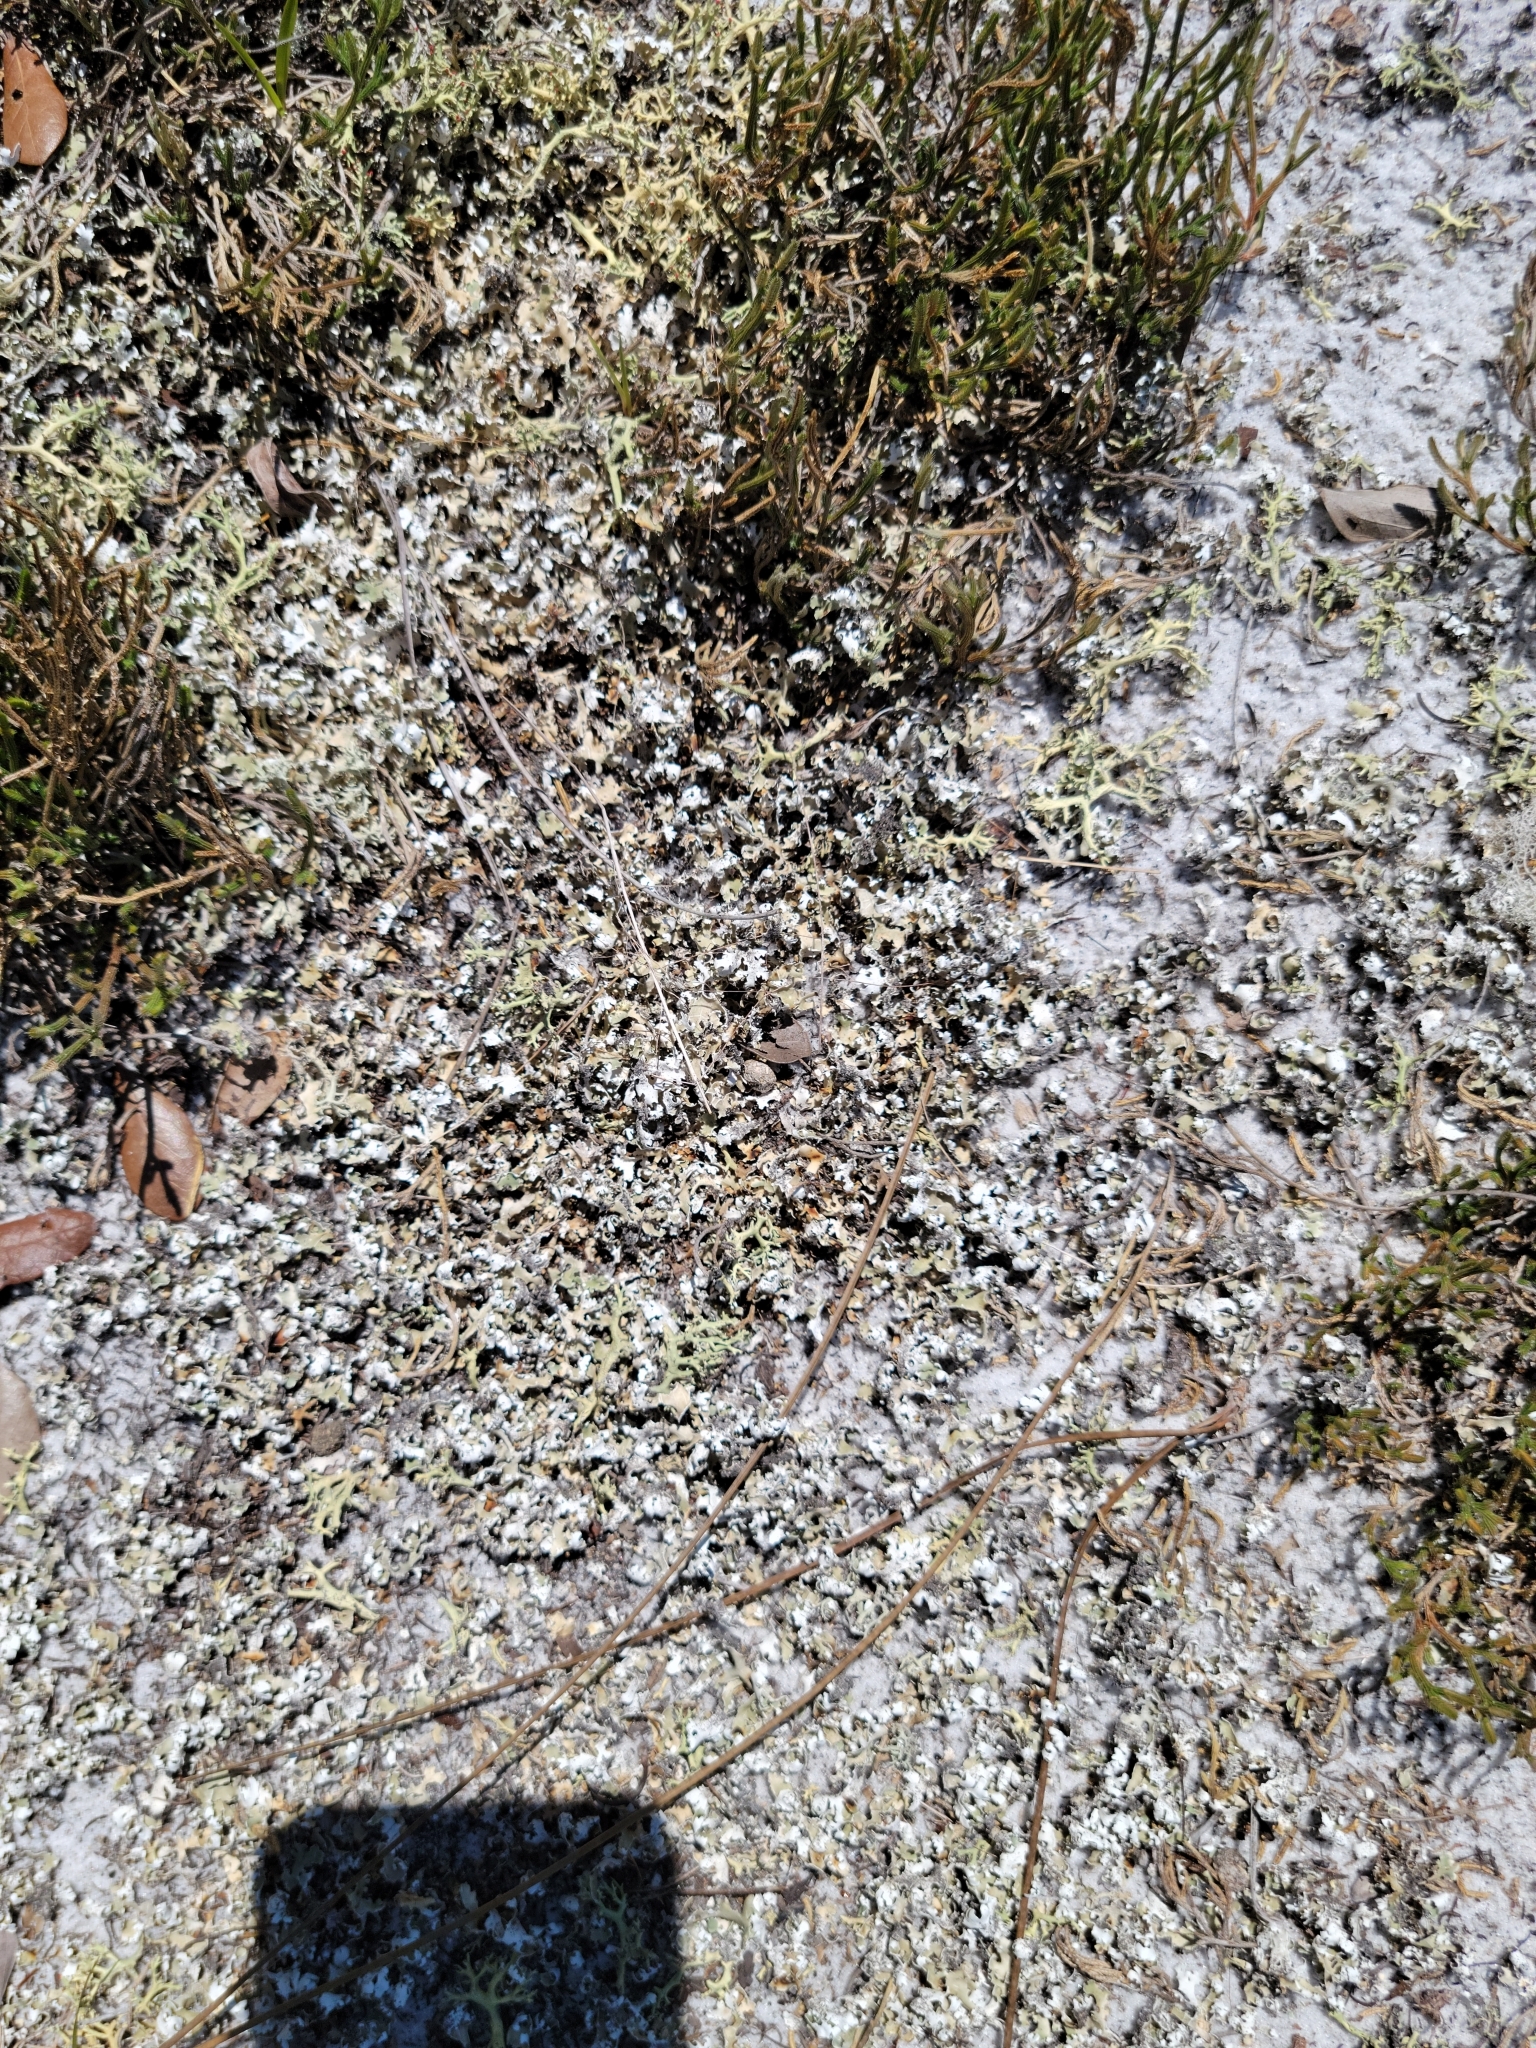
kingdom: Fungi
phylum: Ascomycota
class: Lecanoromycetes
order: Lecanorales
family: Cladoniaceae
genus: Cladonia
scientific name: Cladonia prostrata
